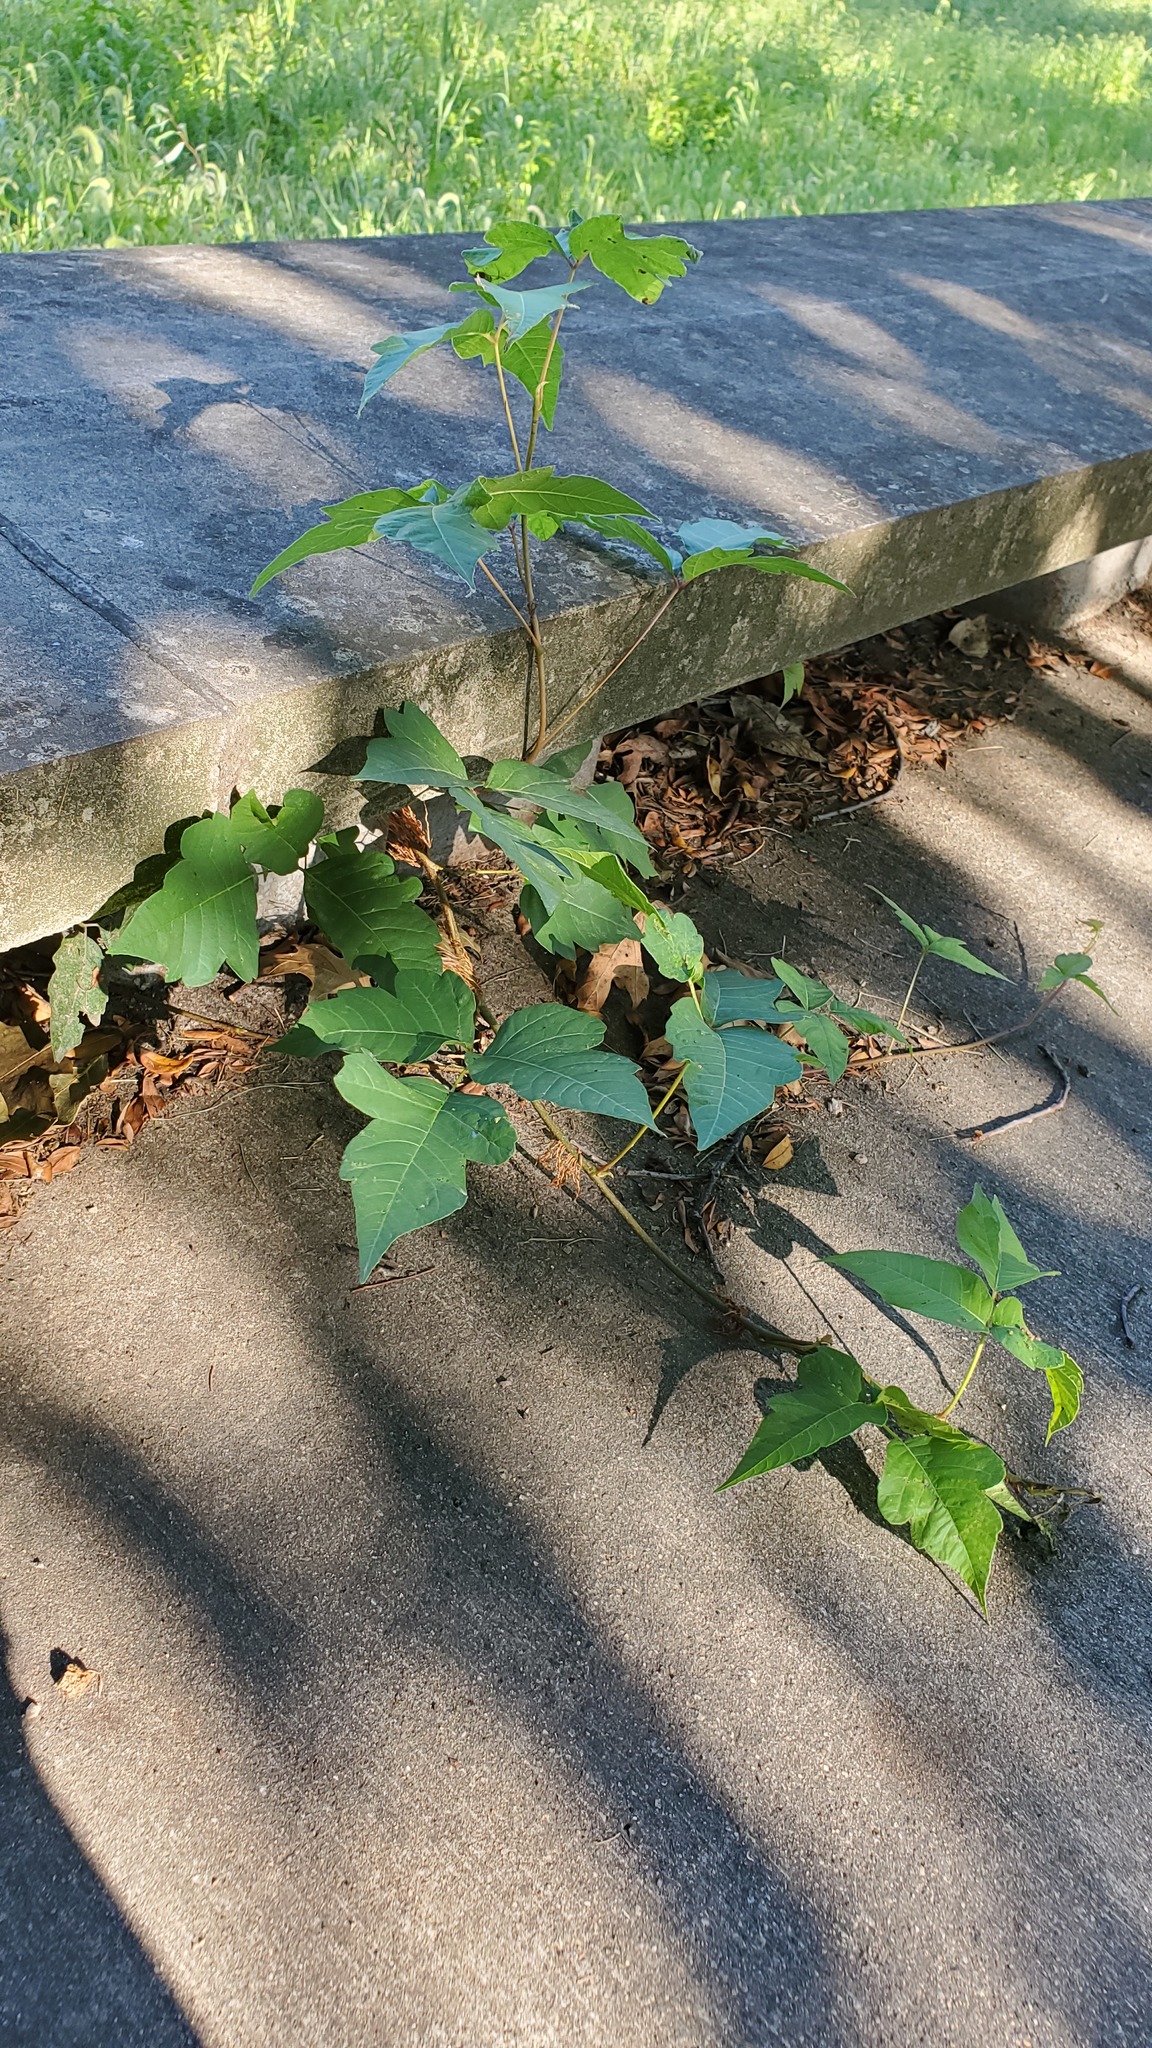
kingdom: Plantae
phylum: Tracheophyta
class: Magnoliopsida
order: Sapindales
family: Anacardiaceae
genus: Toxicodendron
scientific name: Toxicodendron radicans
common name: Poison ivy
